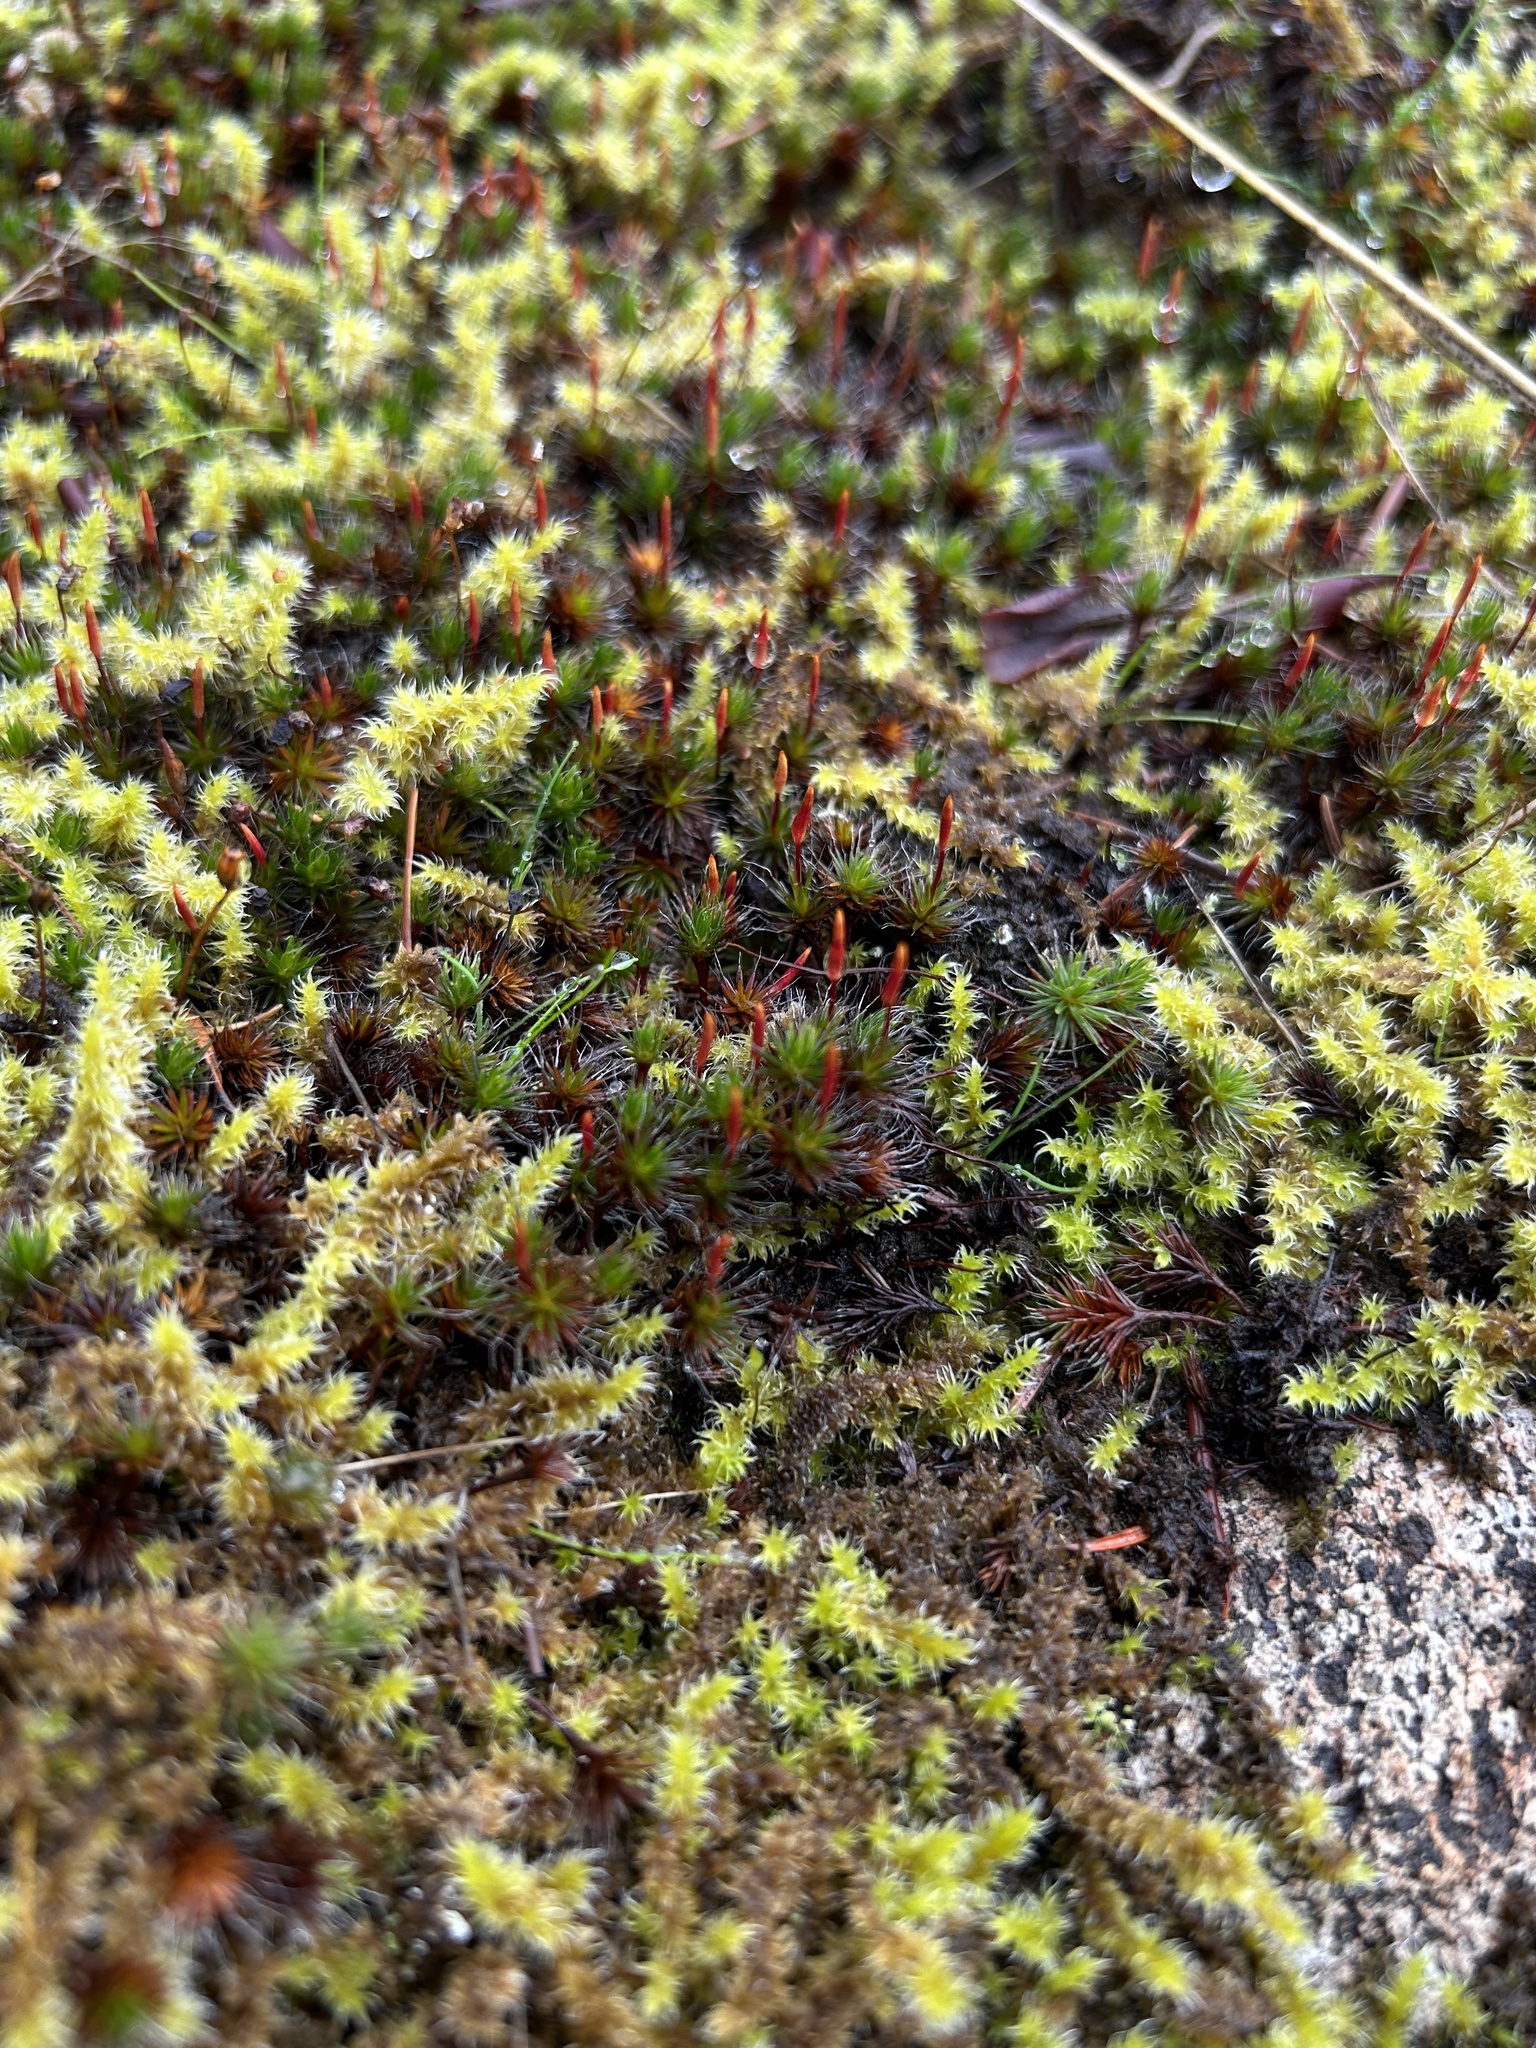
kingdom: Plantae
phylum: Bryophyta
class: Polytrichopsida
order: Polytrichales
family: Polytrichaceae
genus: Polytrichum
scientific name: Polytrichum piliferum
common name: Bristly haircap
